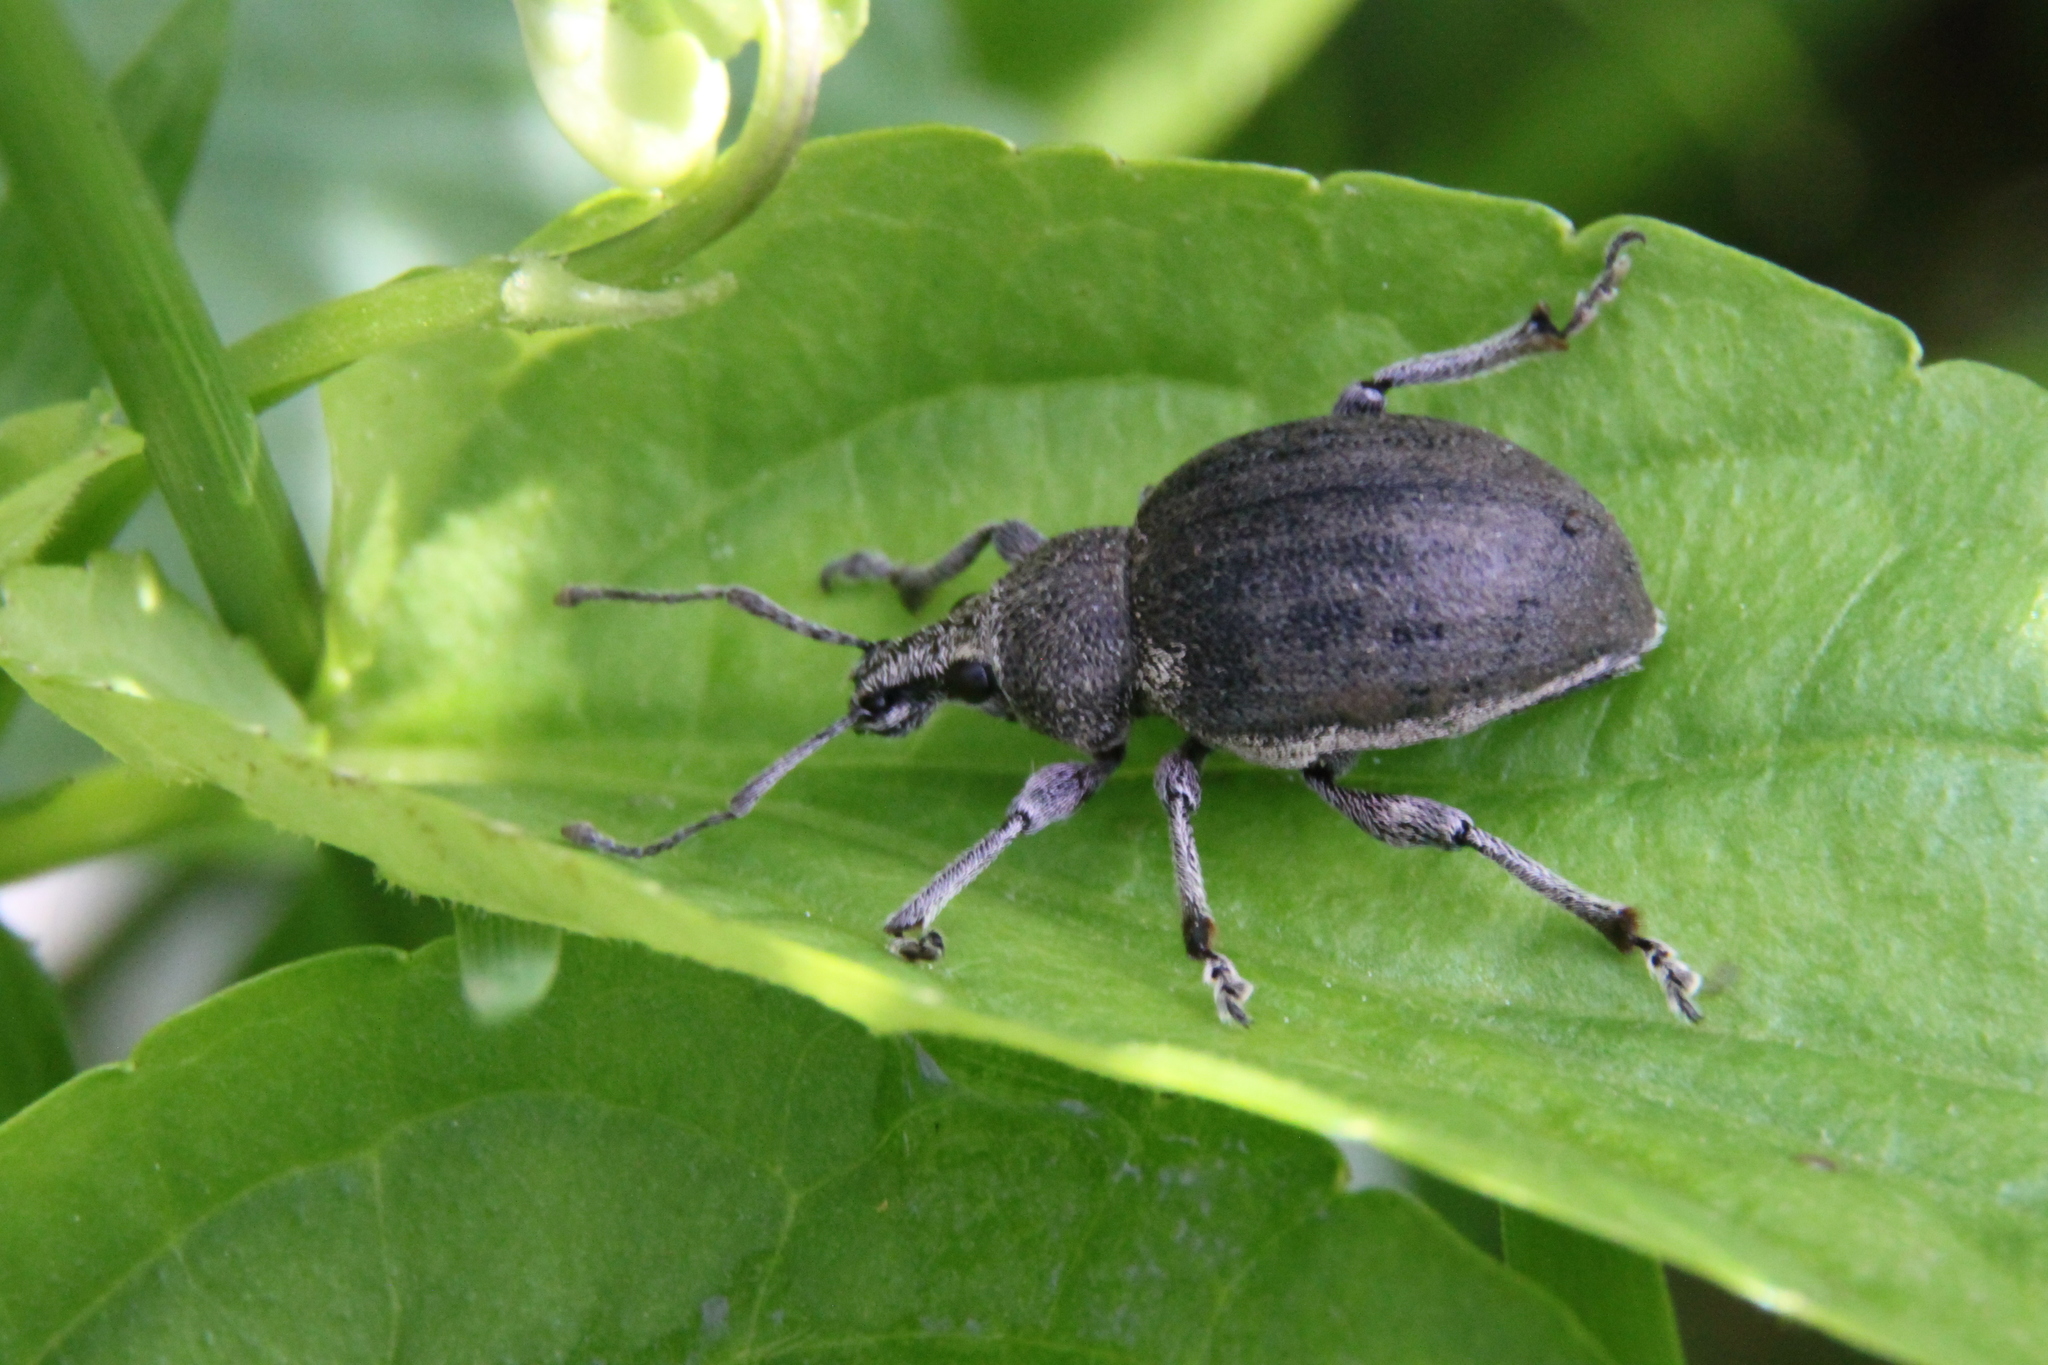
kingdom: Animalia
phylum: Arthropoda
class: Insecta
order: Coleoptera
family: Curculionidae
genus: Otiorhynchus
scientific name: Otiorhynchus
